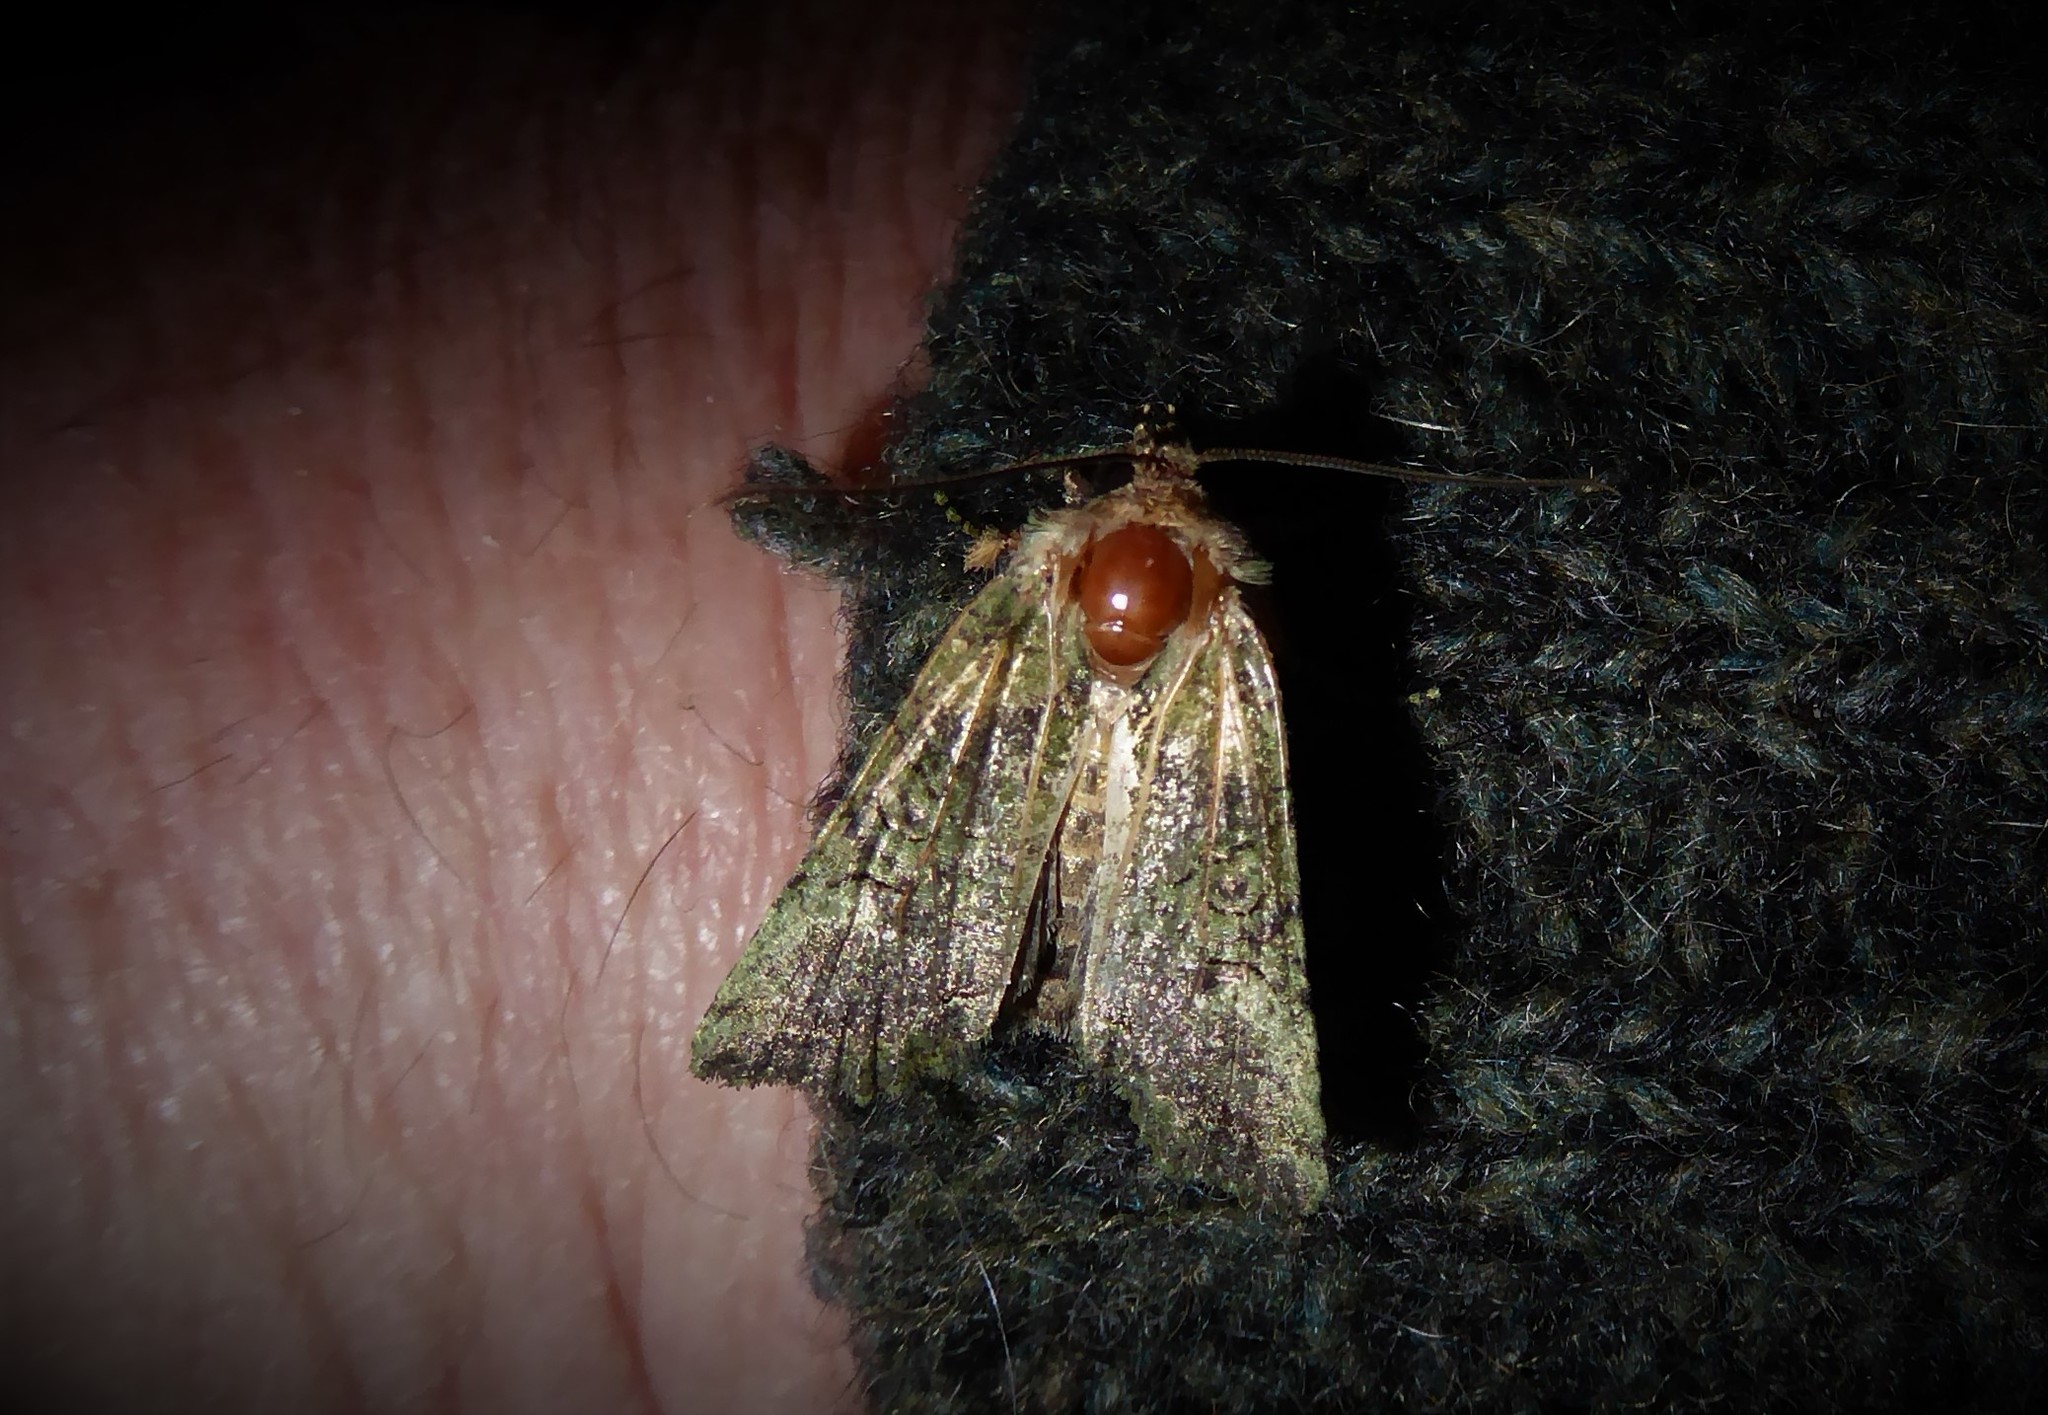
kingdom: Animalia
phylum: Arthropoda
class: Insecta
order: Lepidoptera
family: Noctuidae
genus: Meterana
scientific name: Meterana levis
